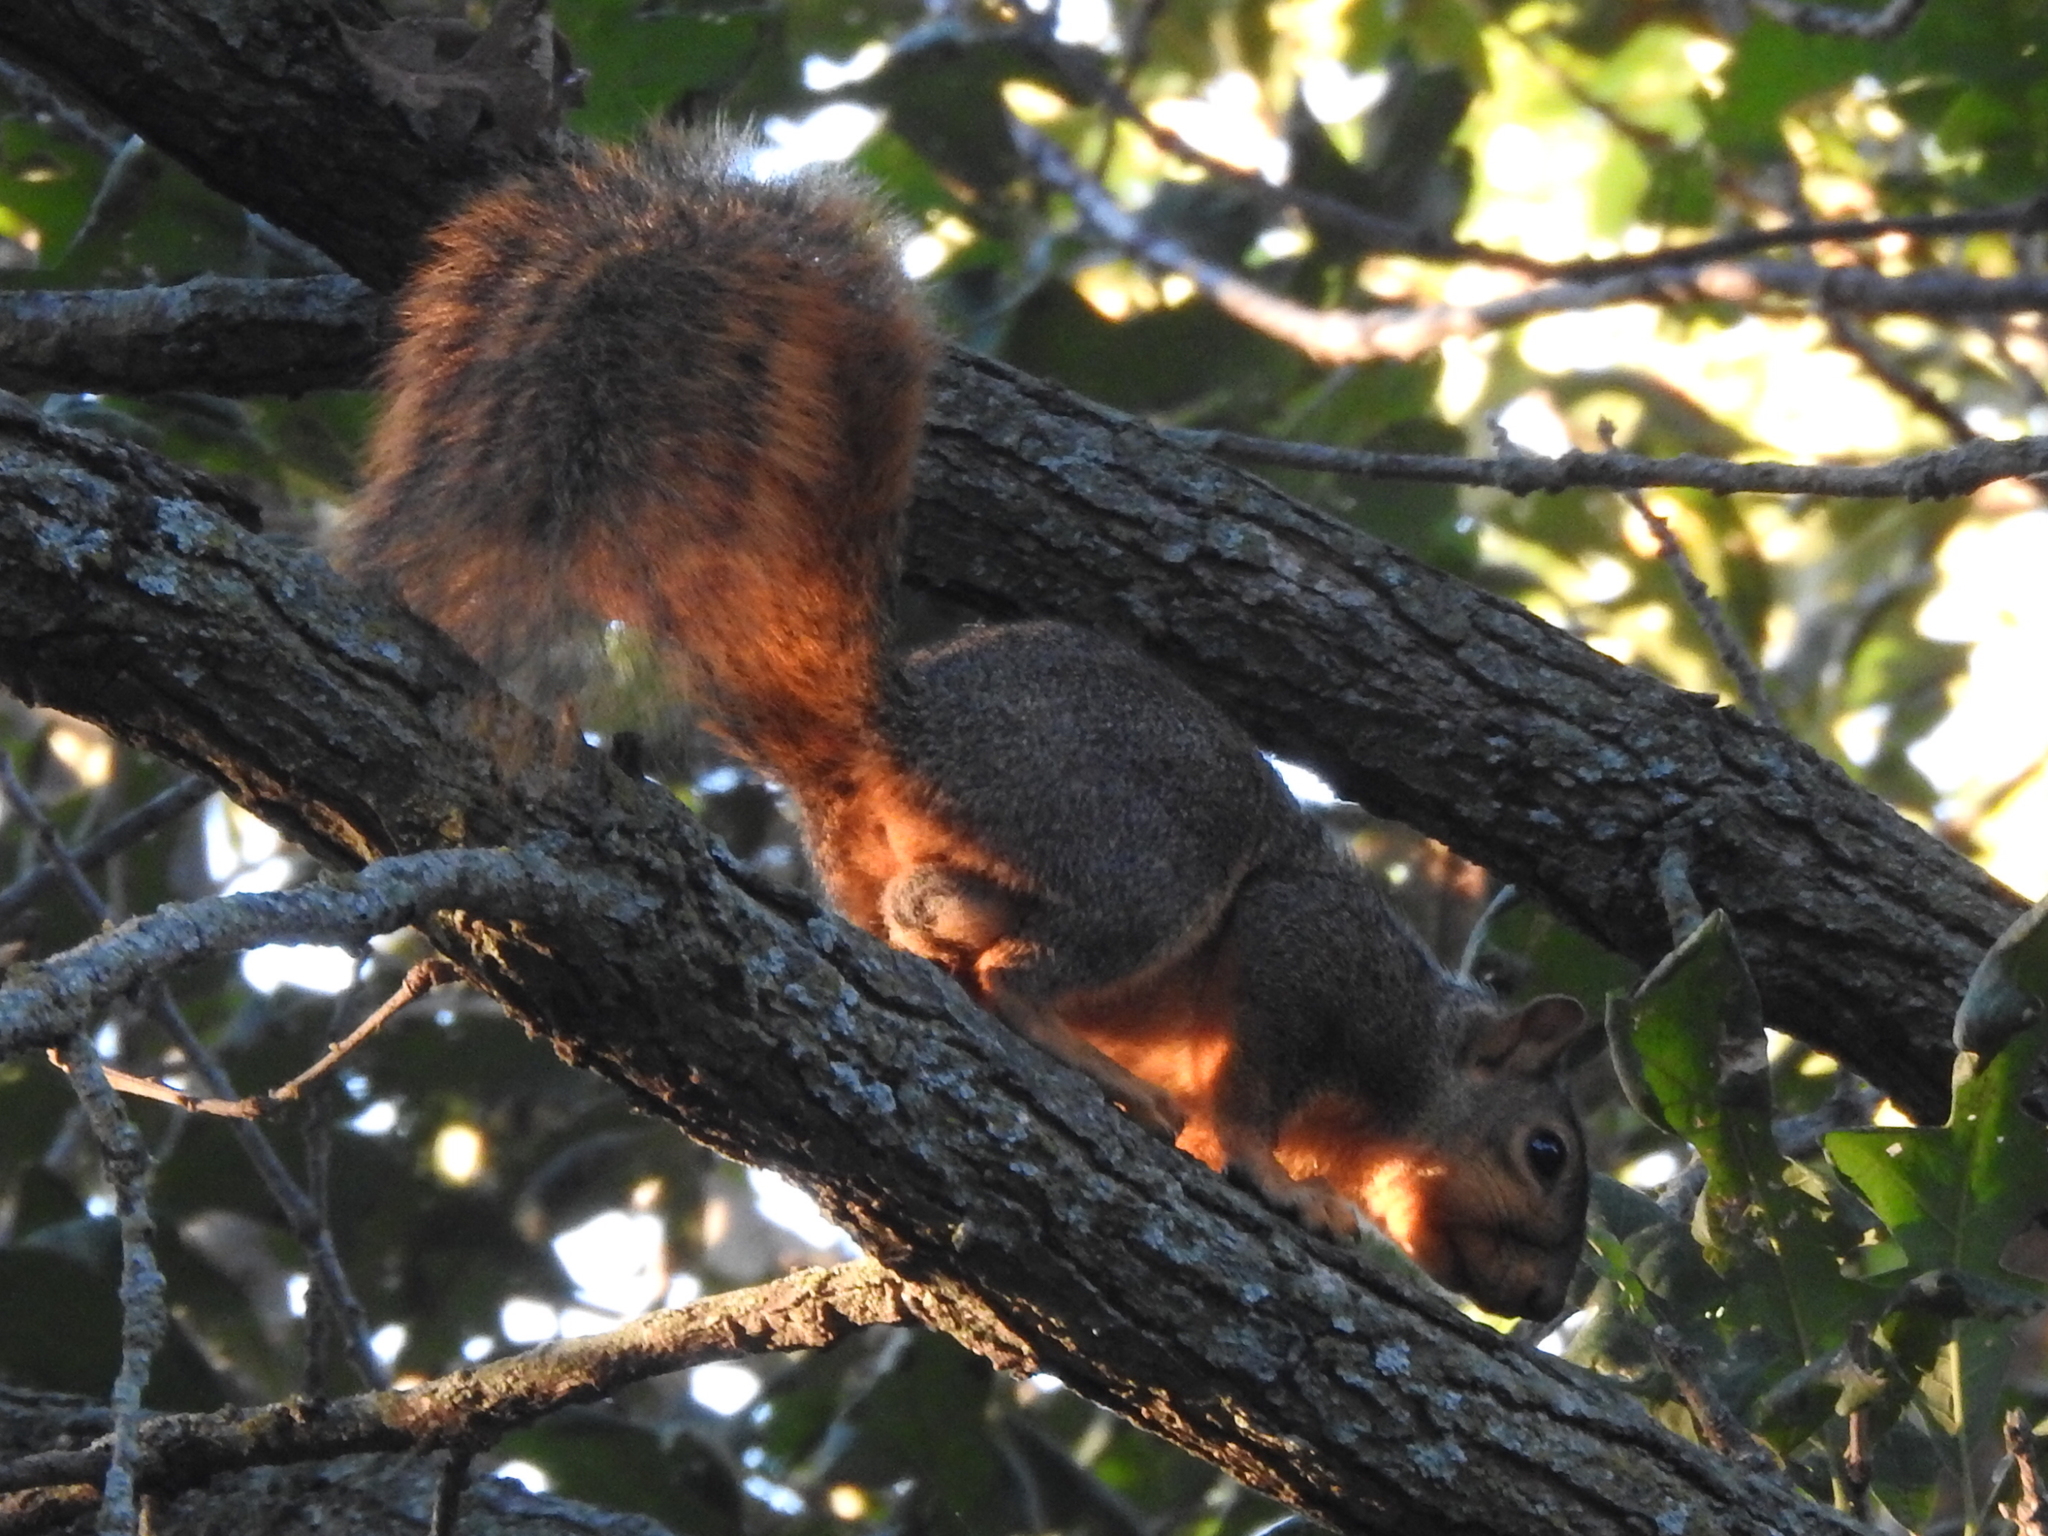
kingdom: Animalia
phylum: Chordata
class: Mammalia
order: Rodentia
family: Sciuridae
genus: Sciurus
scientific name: Sciurus niger
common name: Fox squirrel
